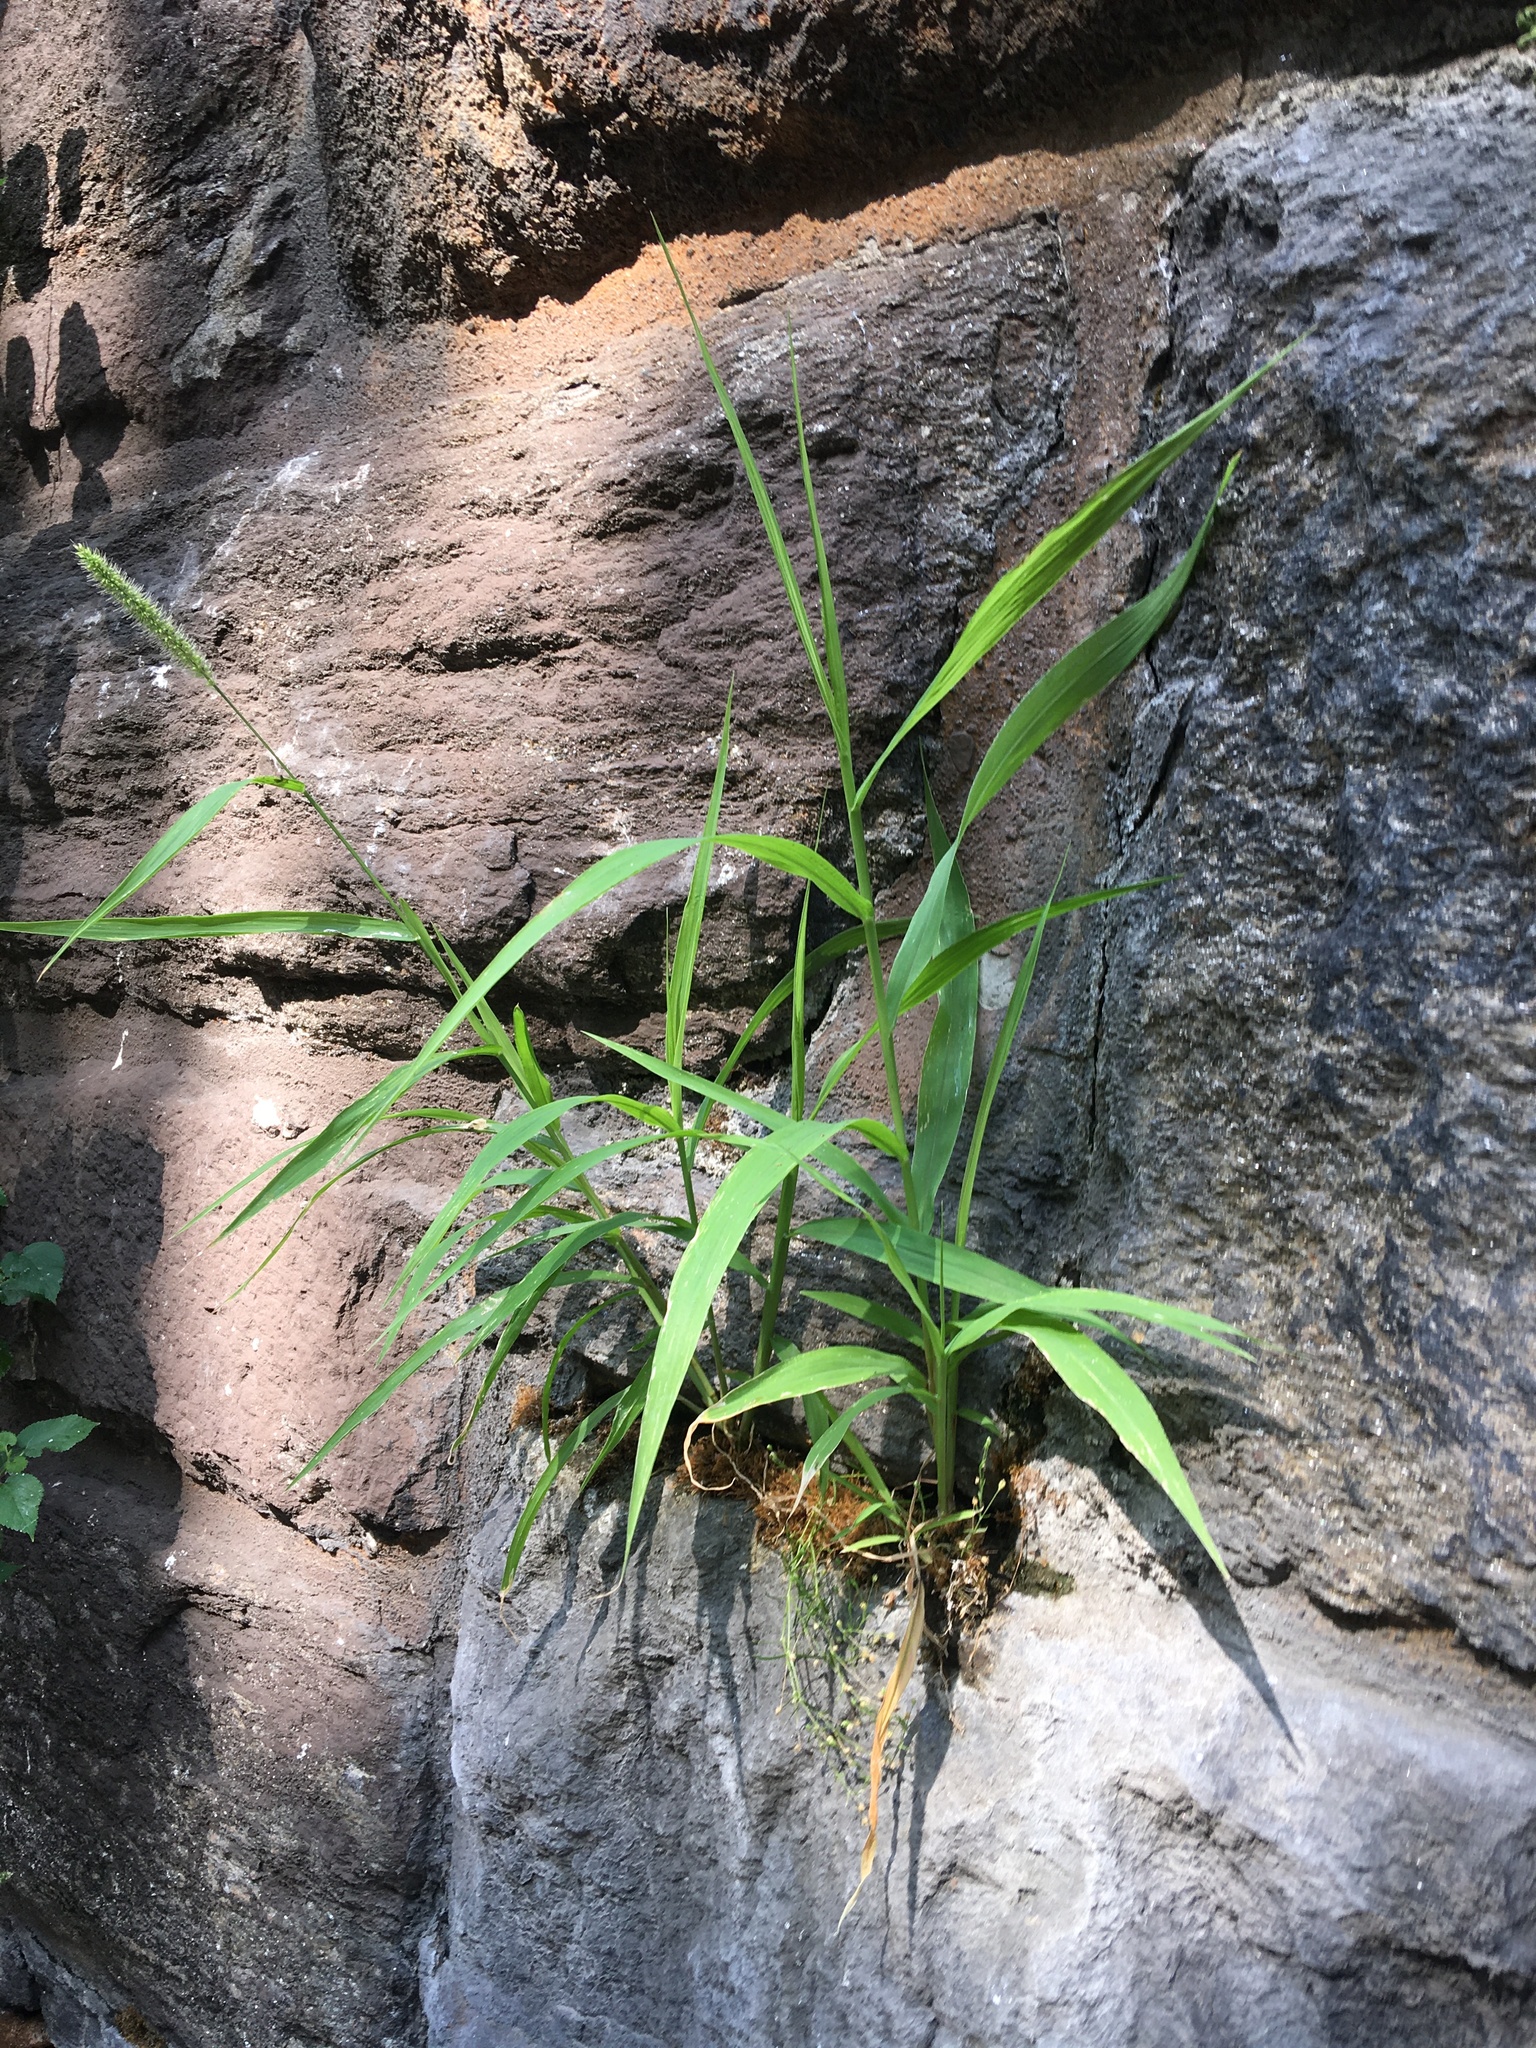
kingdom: Plantae
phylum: Tracheophyta
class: Liliopsida
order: Poales
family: Poaceae
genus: Setaria
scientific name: Setaria viridis
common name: Green bristlegrass
